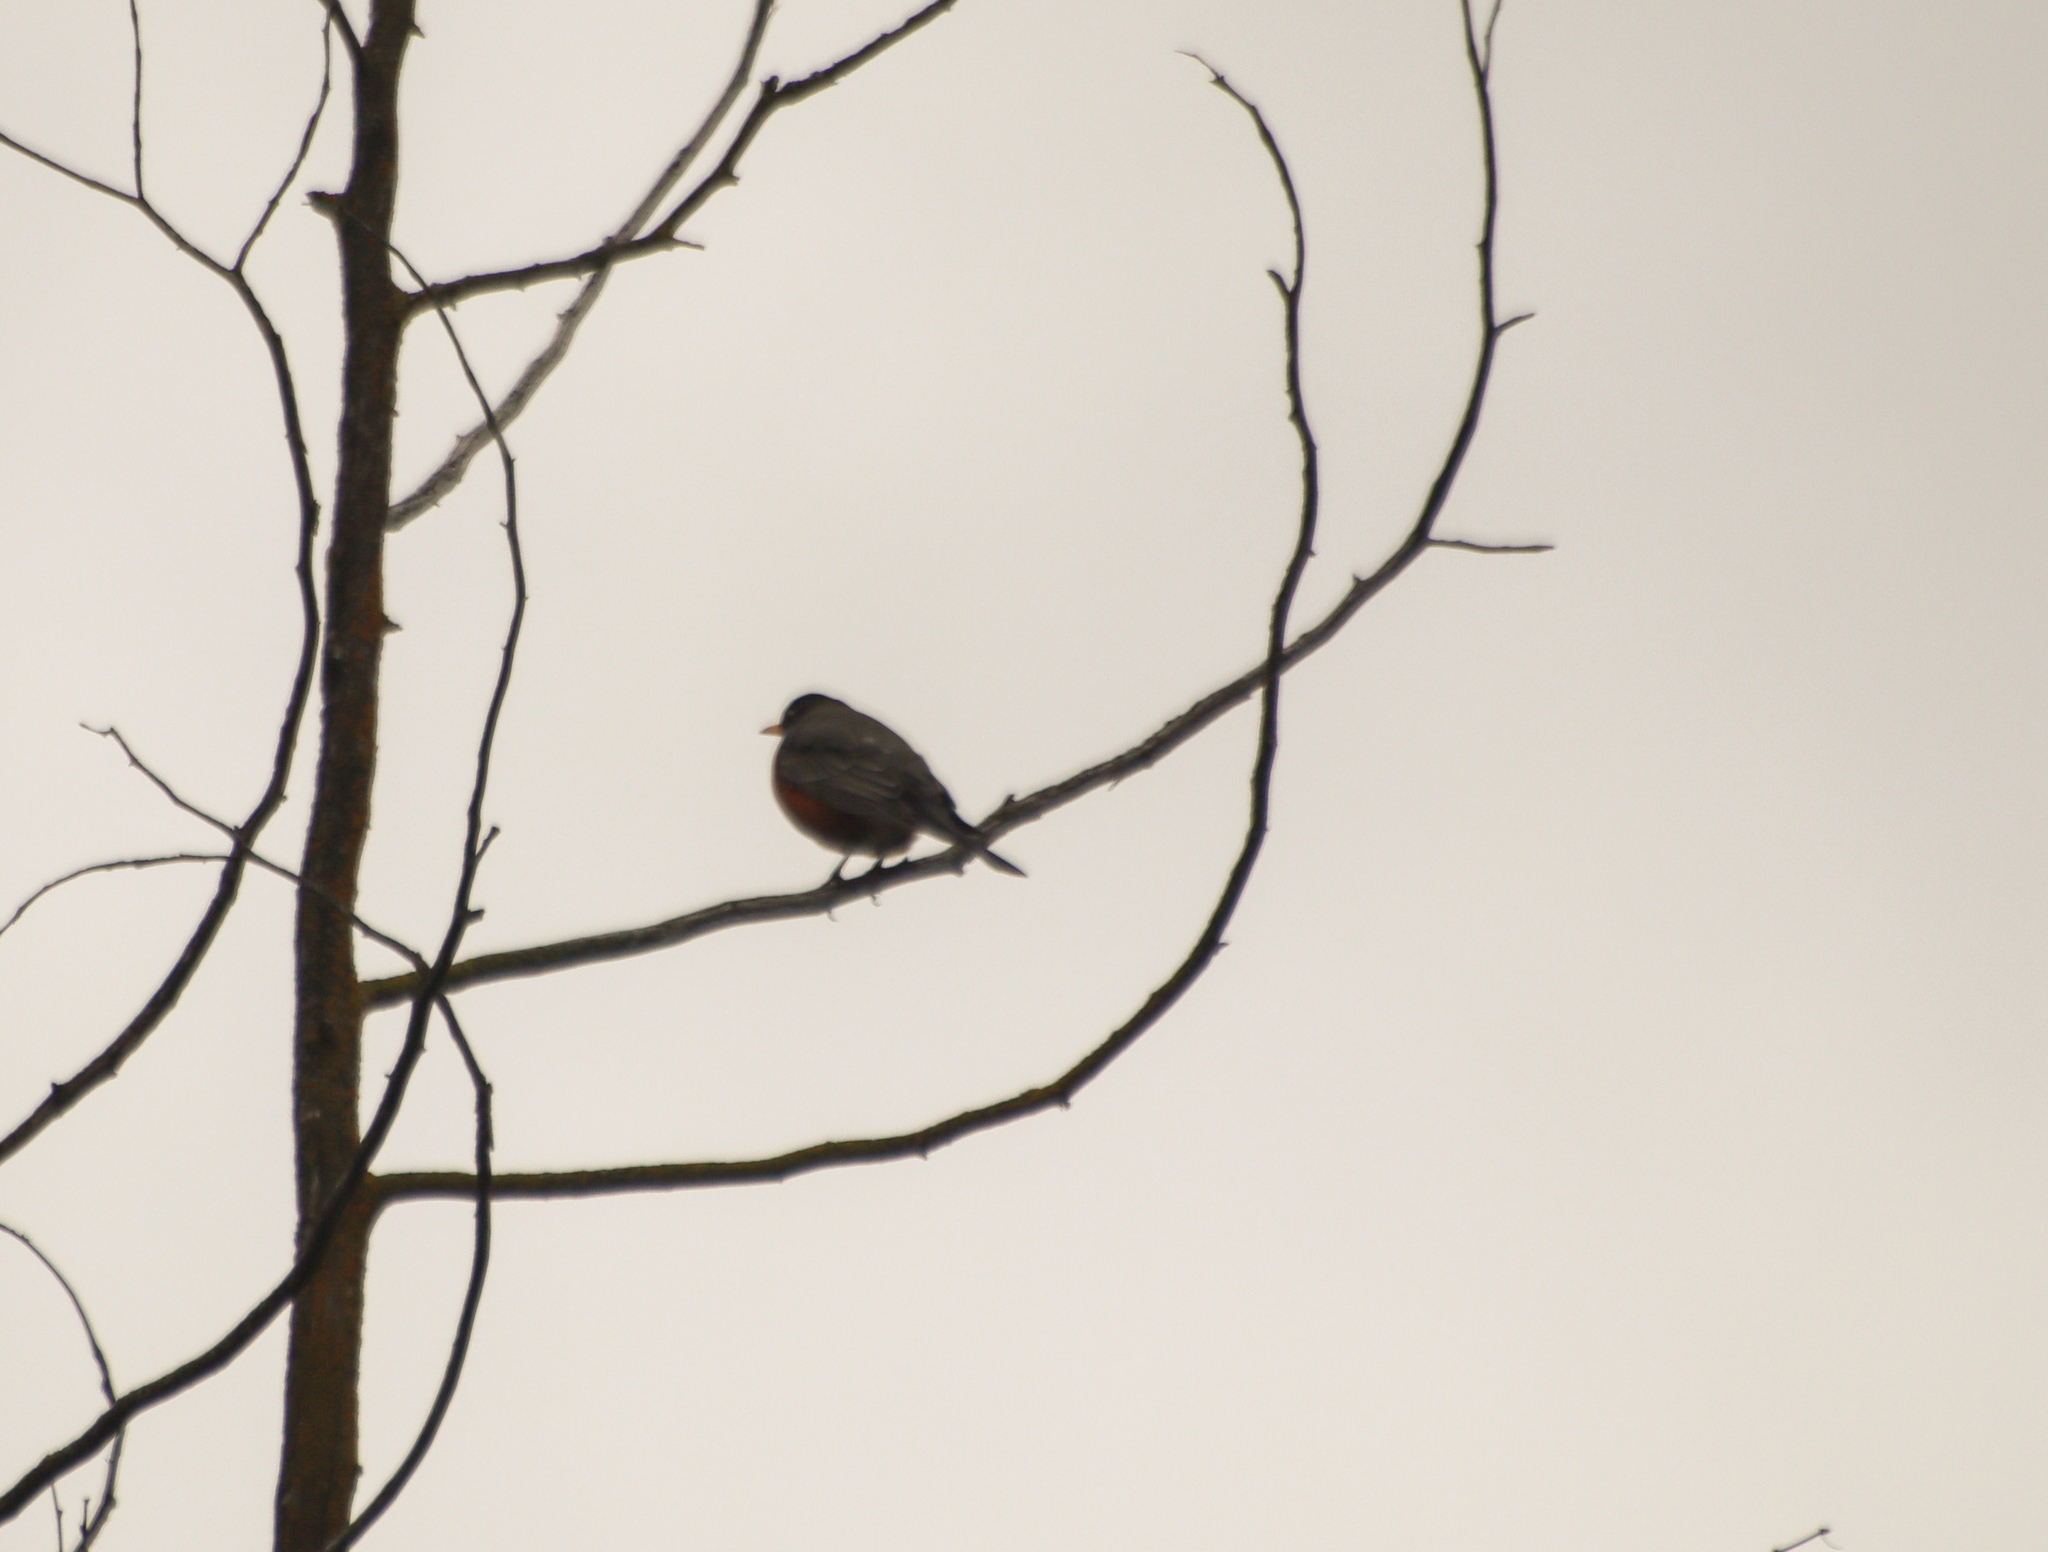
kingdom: Animalia
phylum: Chordata
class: Aves
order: Passeriformes
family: Turdidae
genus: Turdus
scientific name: Turdus migratorius
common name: American robin
